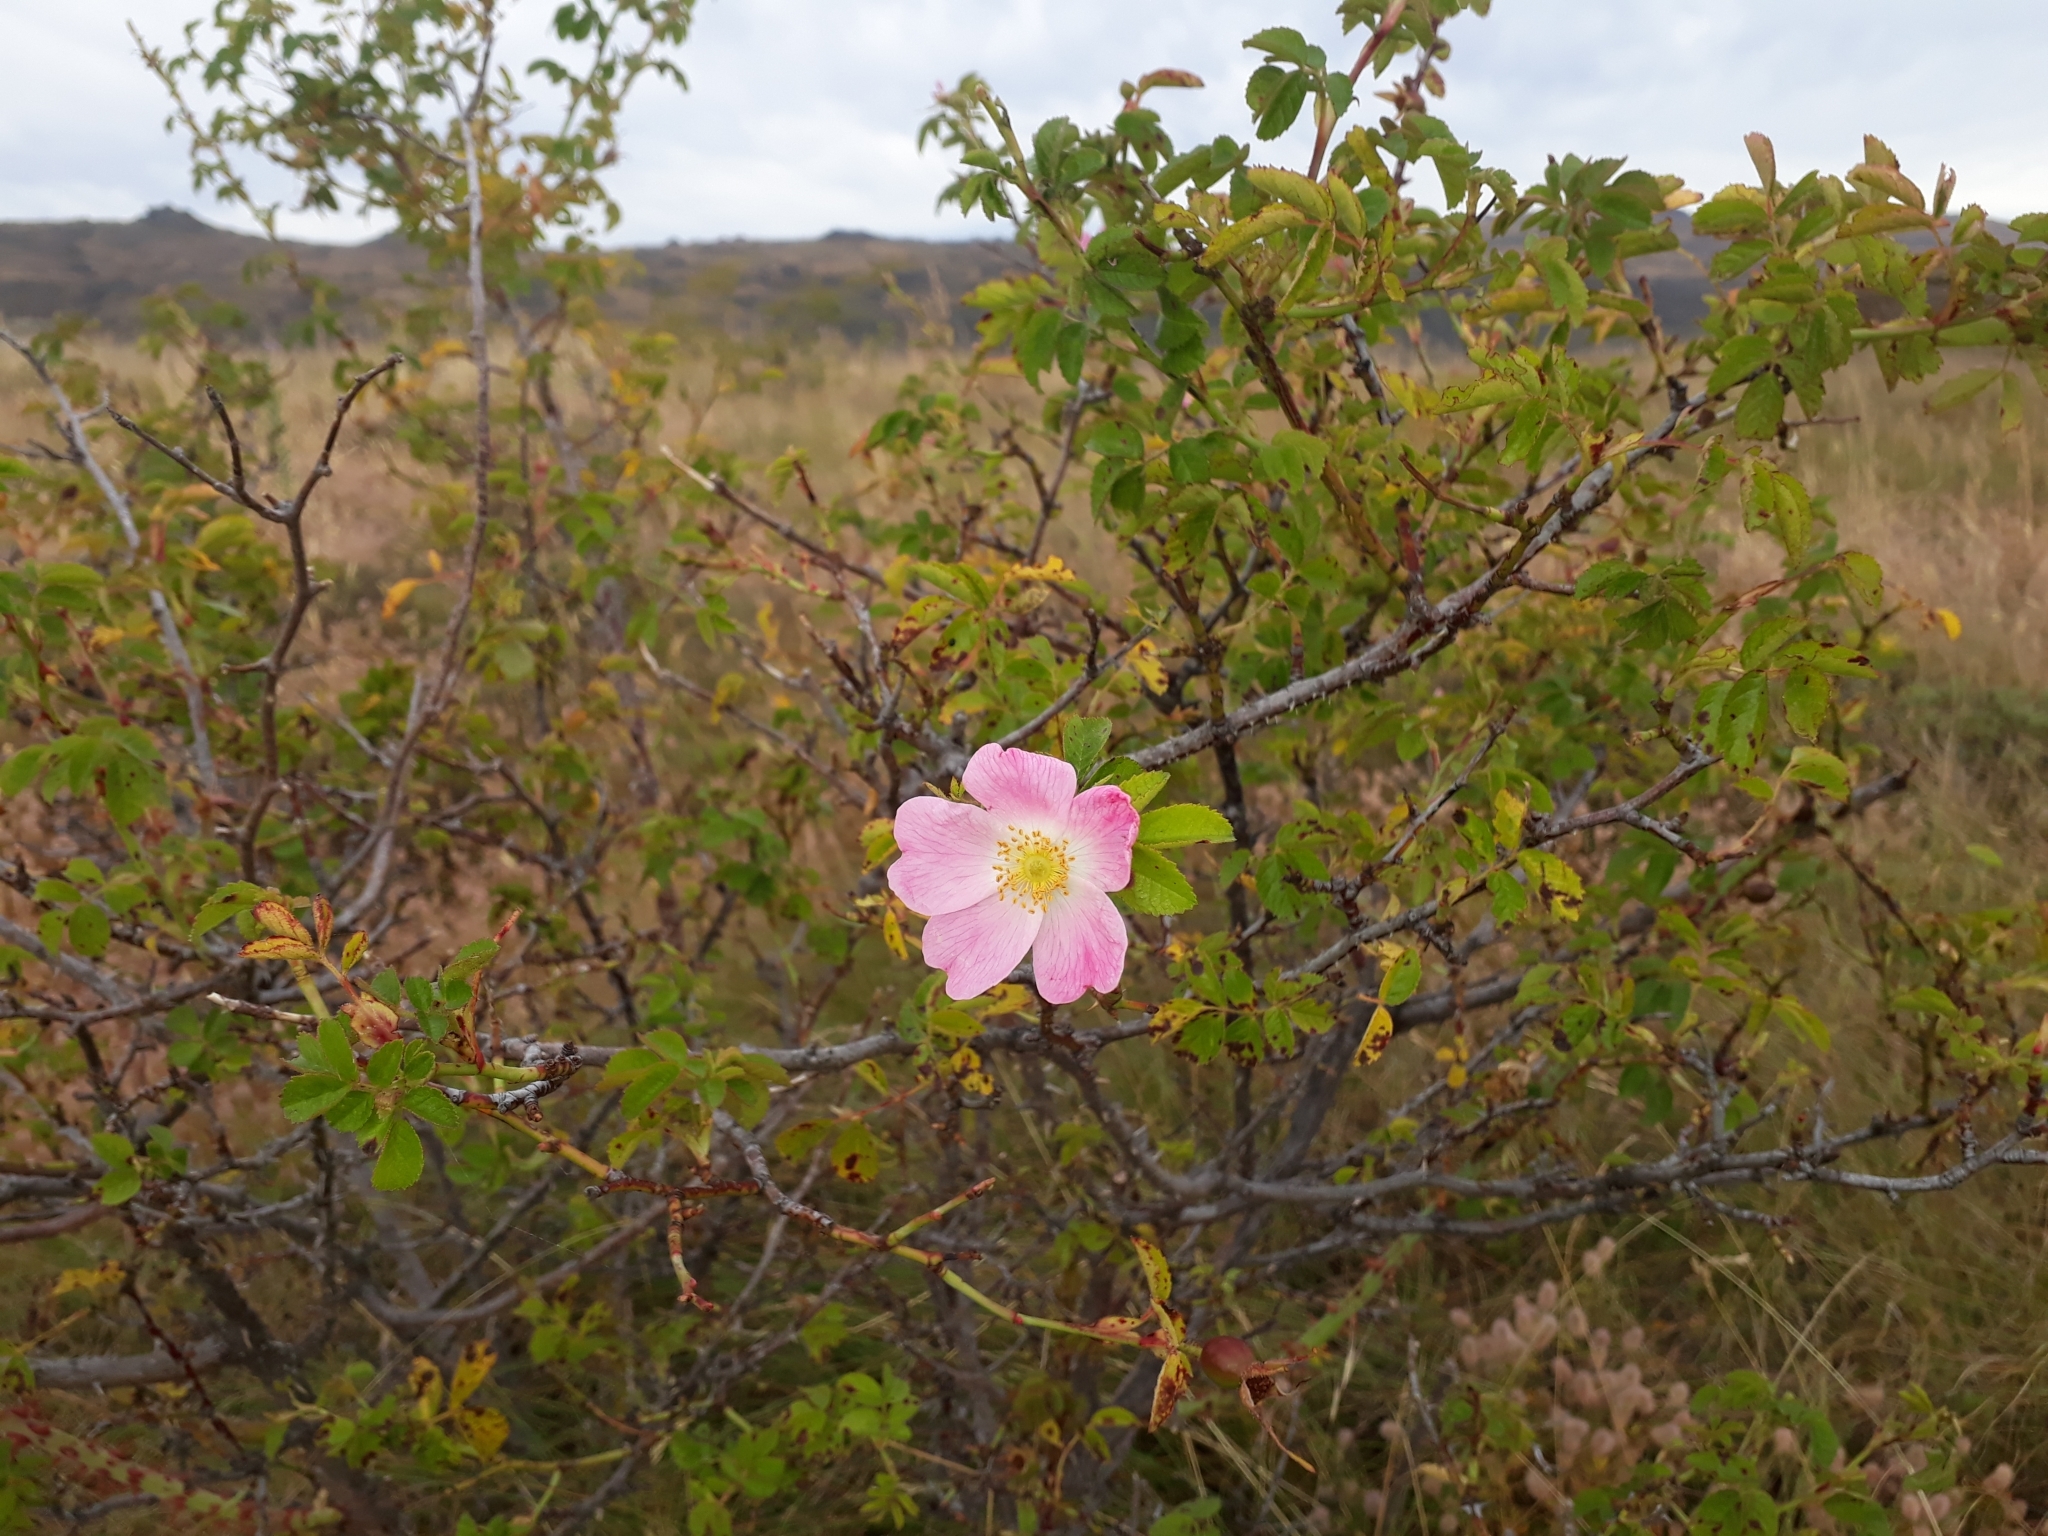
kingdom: Plantae
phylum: Tracheophyta
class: Magnoliopsida
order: Rosales
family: Rosaceae
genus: Rosa
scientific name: Rosa rubiginosa
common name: Sweet-briar
